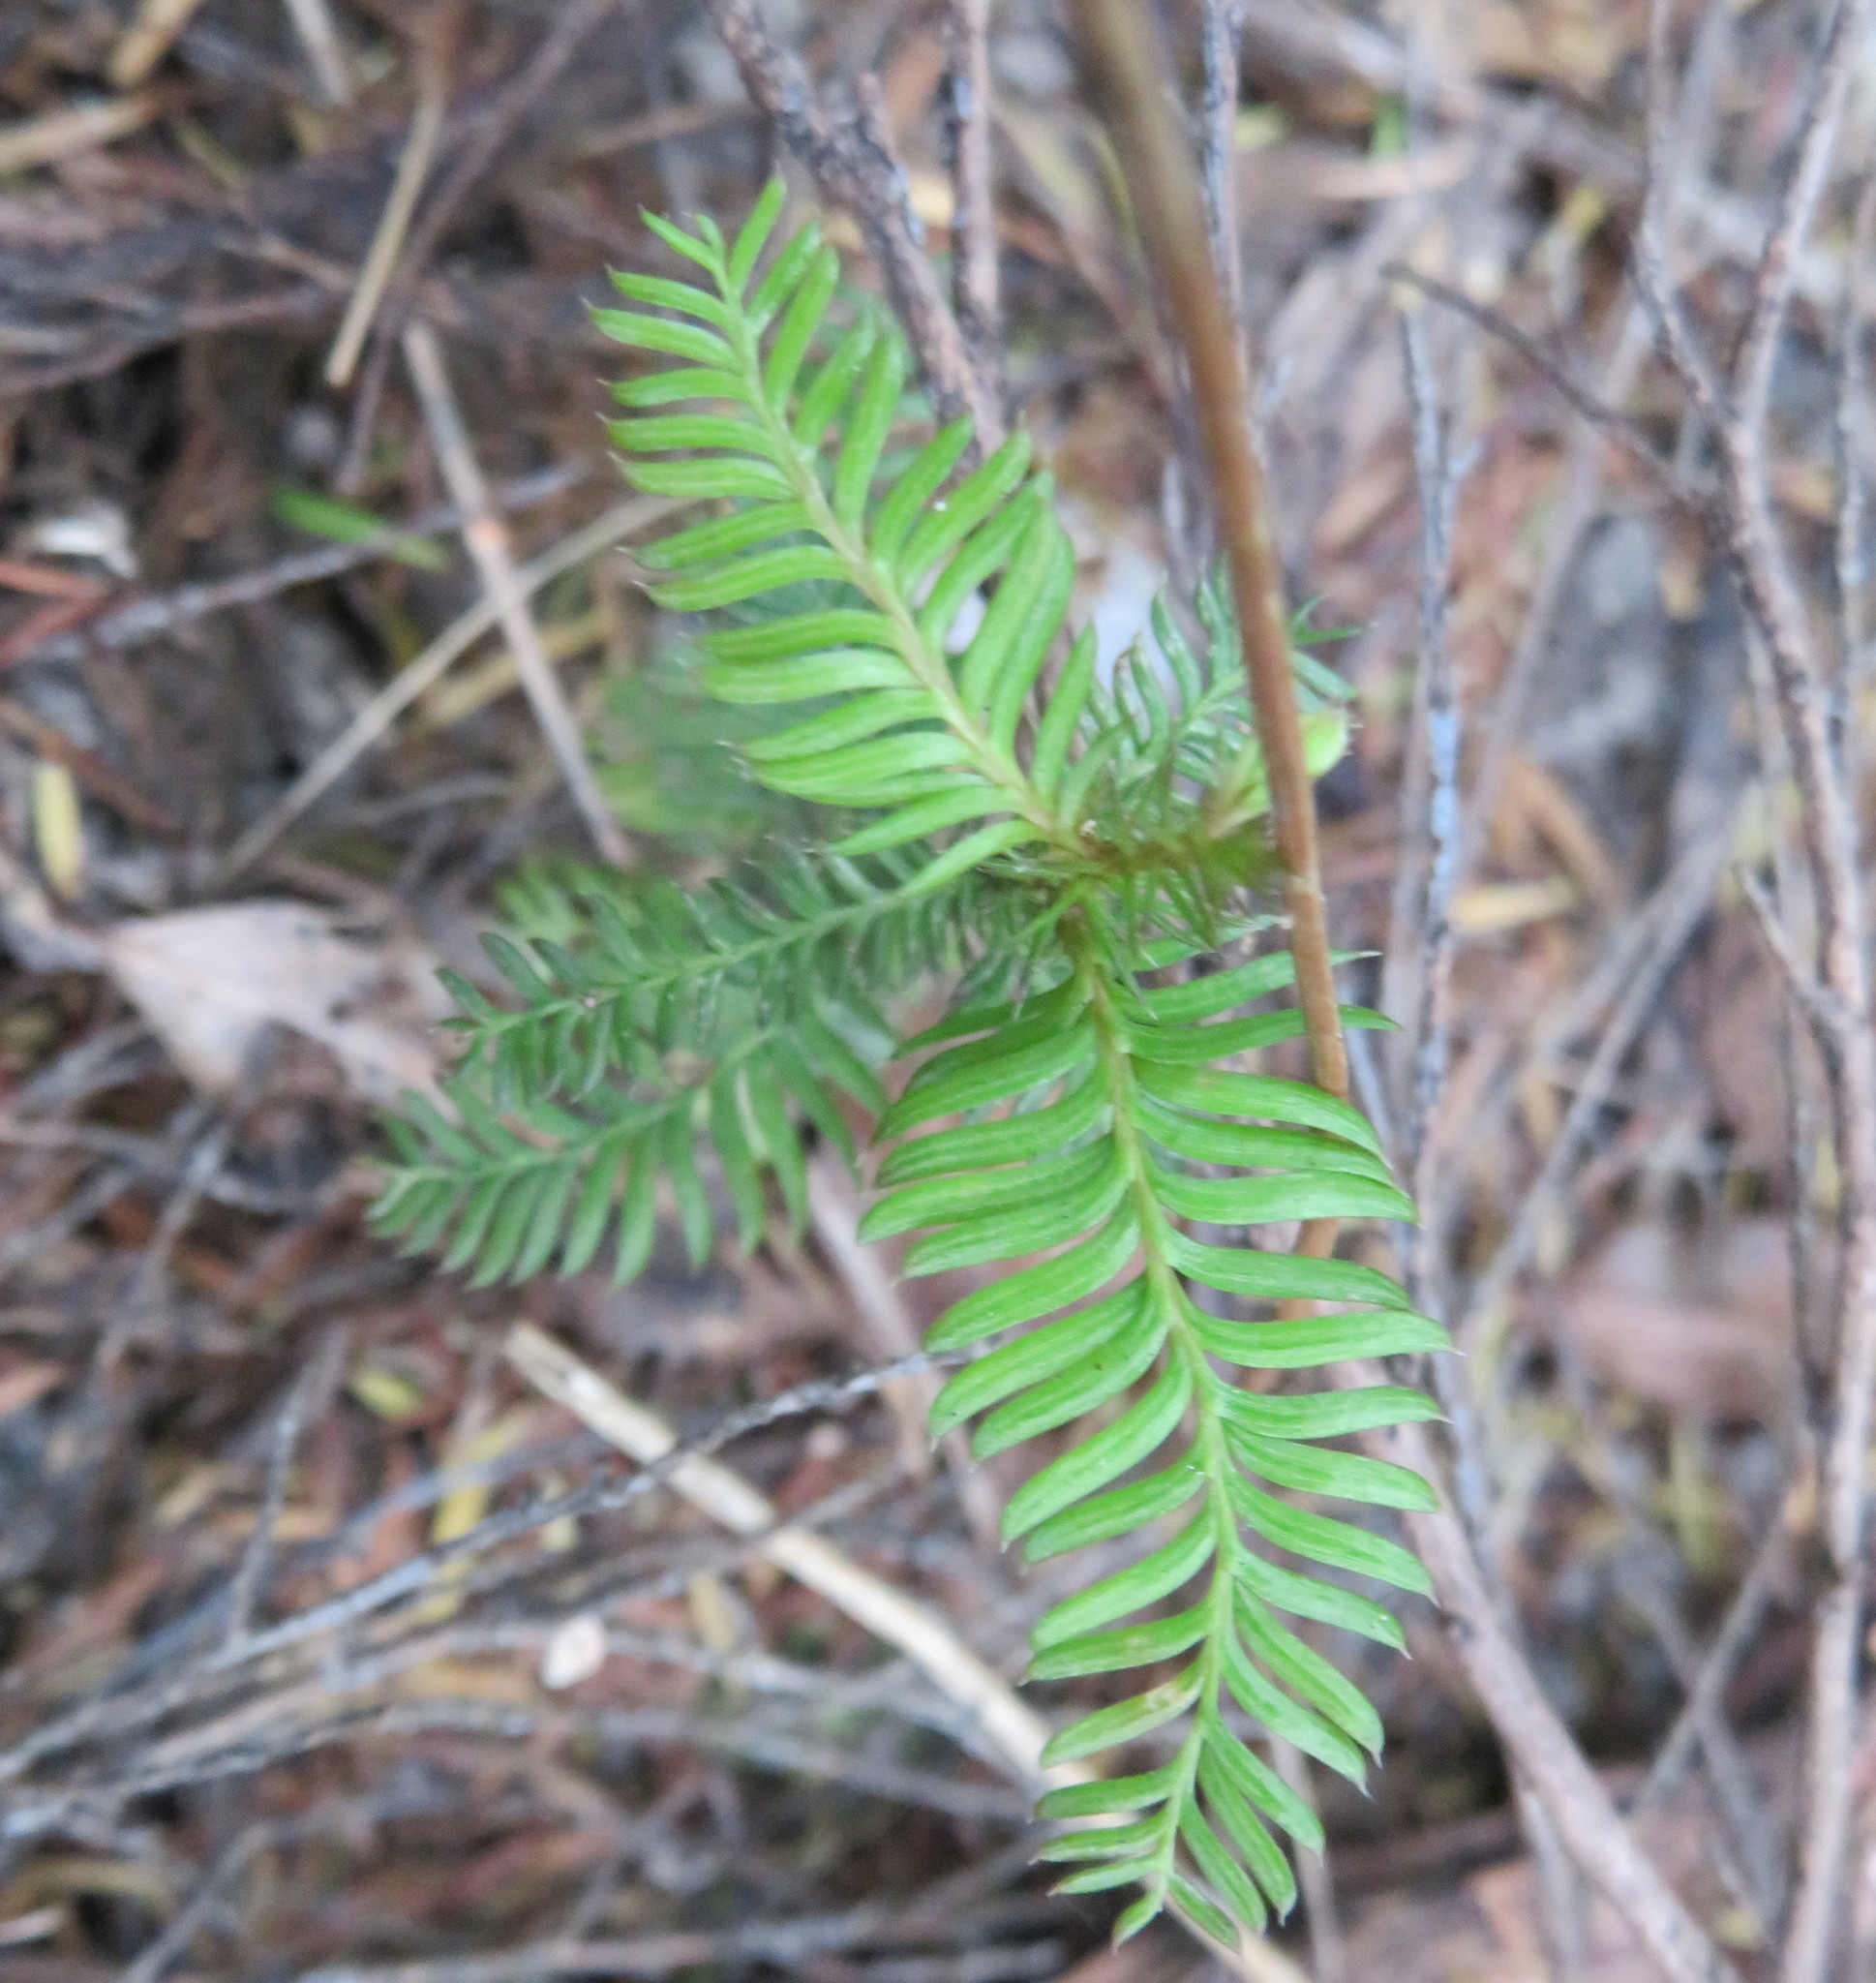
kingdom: Plantae
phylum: Tracheophyta
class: Pinopsida
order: Pinales
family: Podocarpaceae
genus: Dacrycarpus
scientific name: Dacrycarpus dacrydioides
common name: White pine
